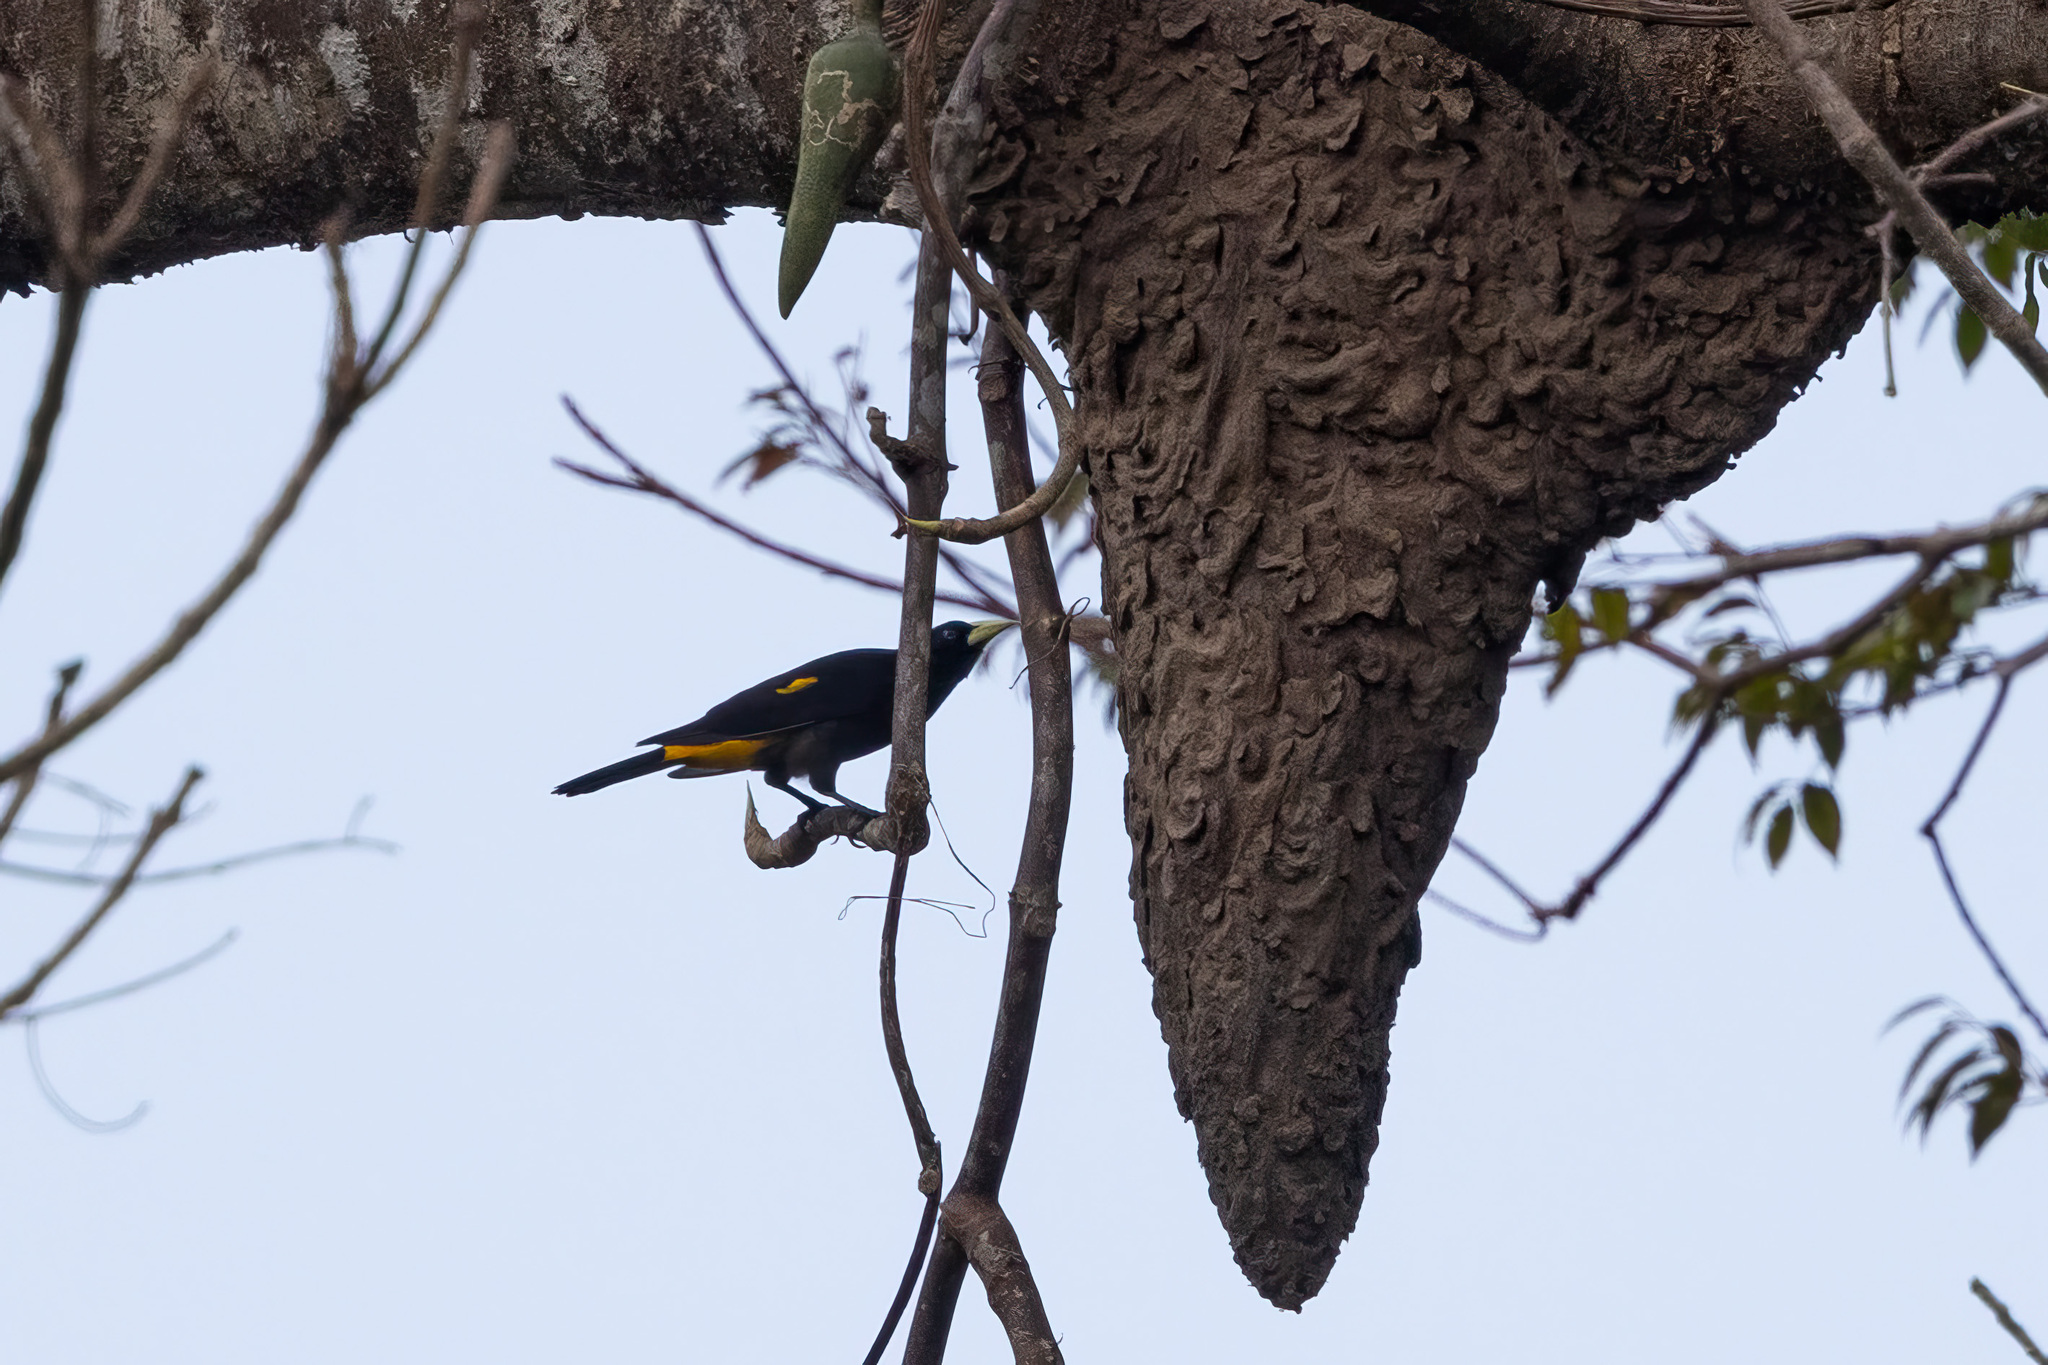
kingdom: Animalia
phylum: Chordata
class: Aves
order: Passeriformes
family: Icteridae
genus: Cacicus
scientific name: Cacicus cela
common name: Yellow-rumped cacique
